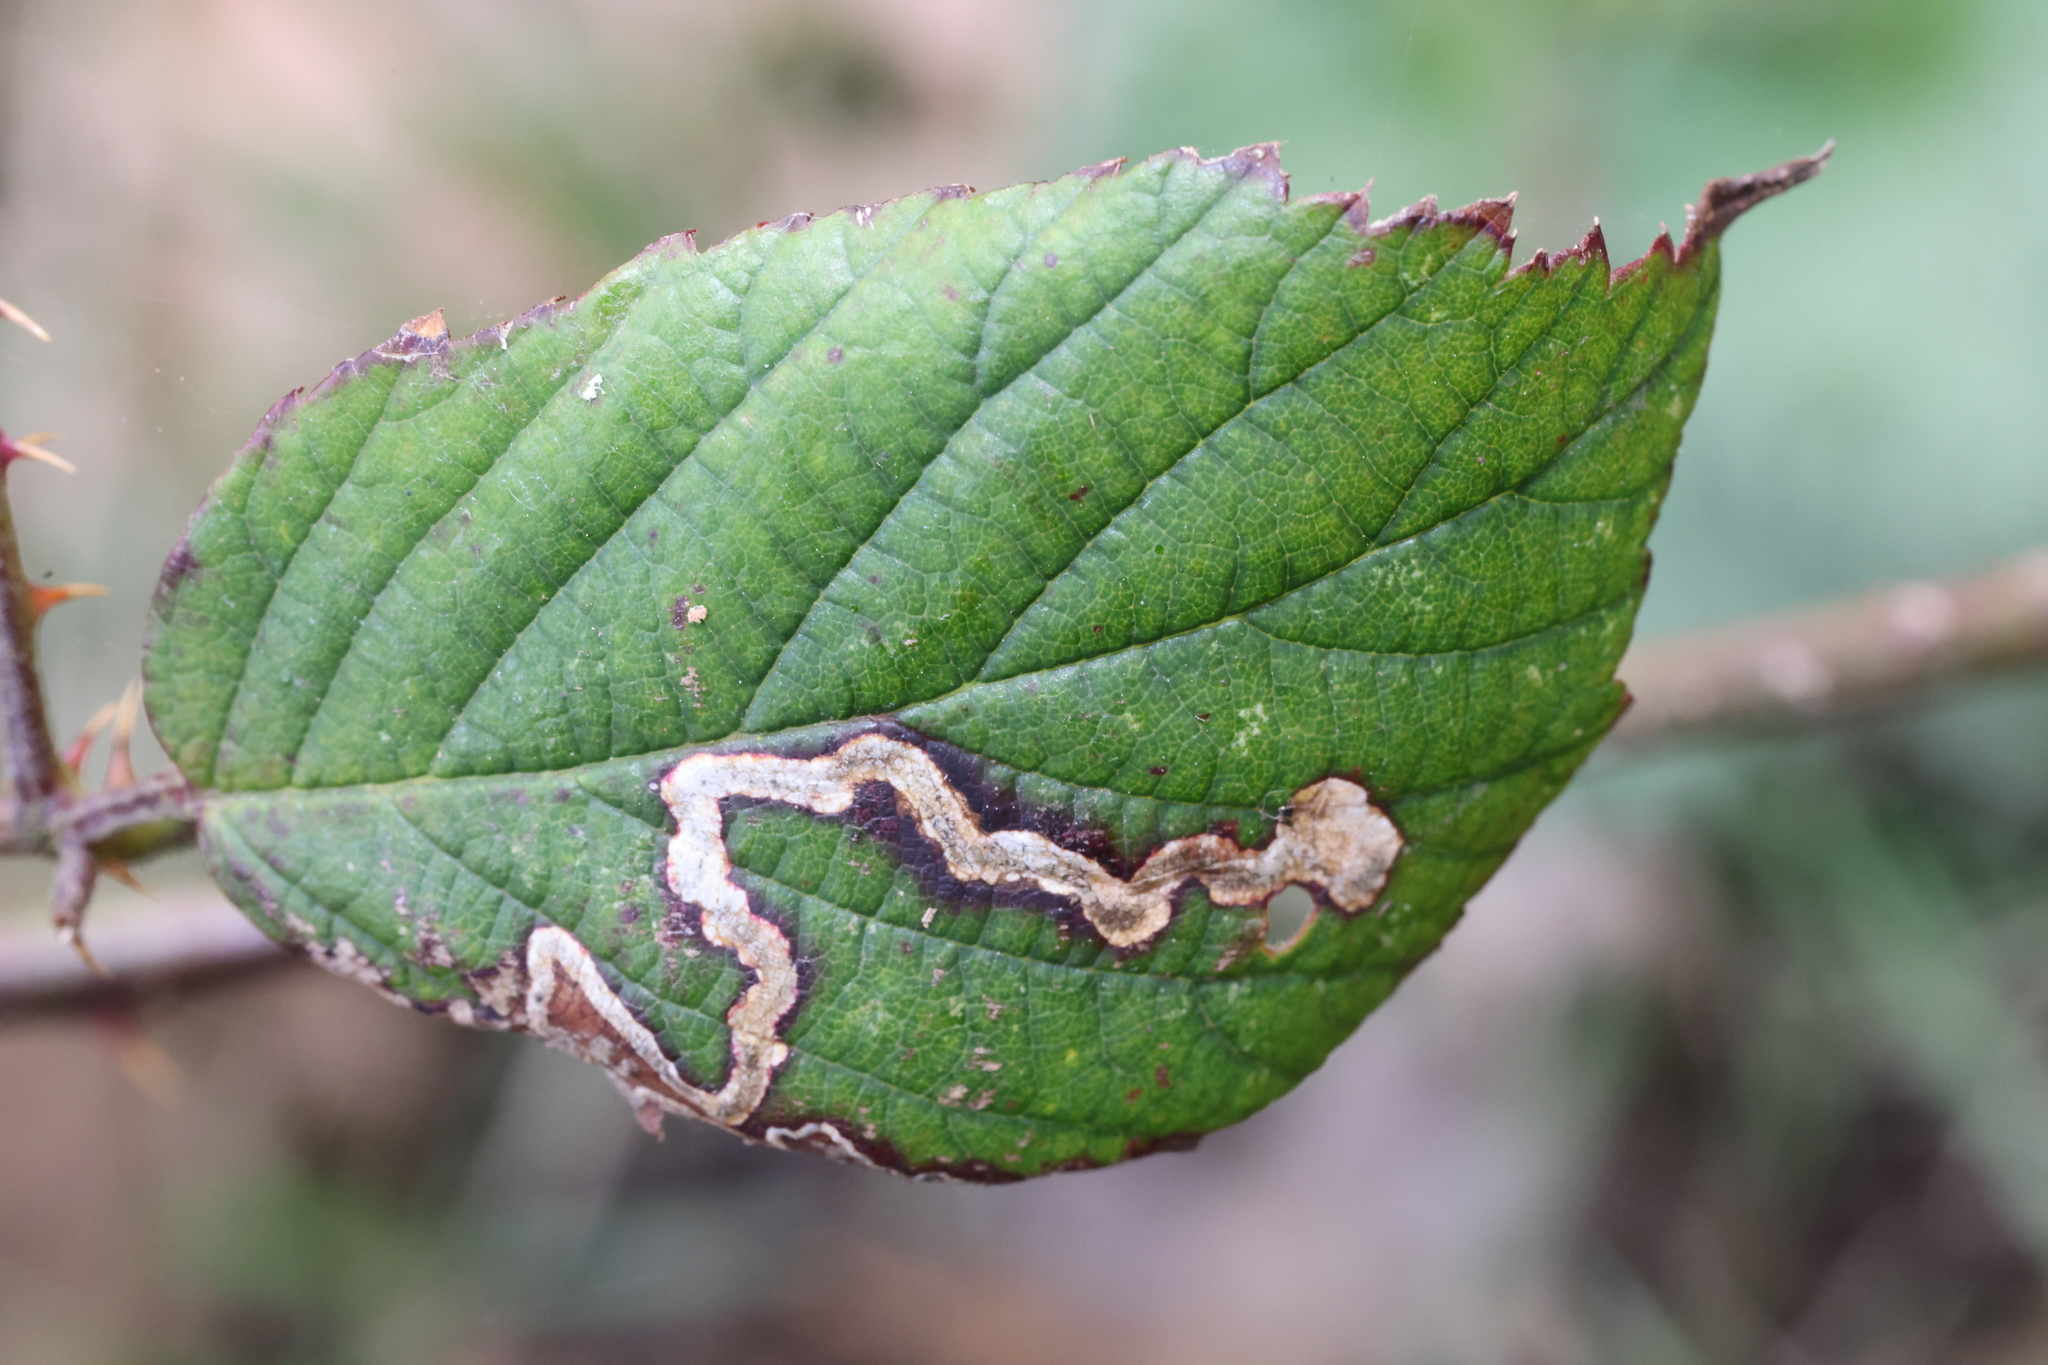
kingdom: Plantae
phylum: Tracheophyta
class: Magnoliopsida
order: Geraniales
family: Geraniaceae
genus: Geranium
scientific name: Geranium robertianum
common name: Herb-robert
